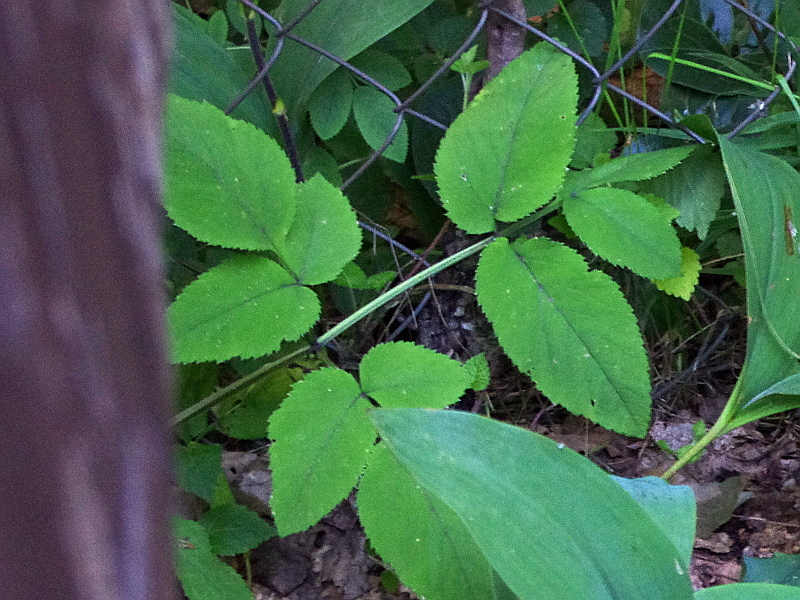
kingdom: Plantae
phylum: Tracheophyta
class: Magnoliopsida
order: Apiales
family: Apiaceae
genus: Angelica
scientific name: Angelica sylvestris
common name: Wild angelica
